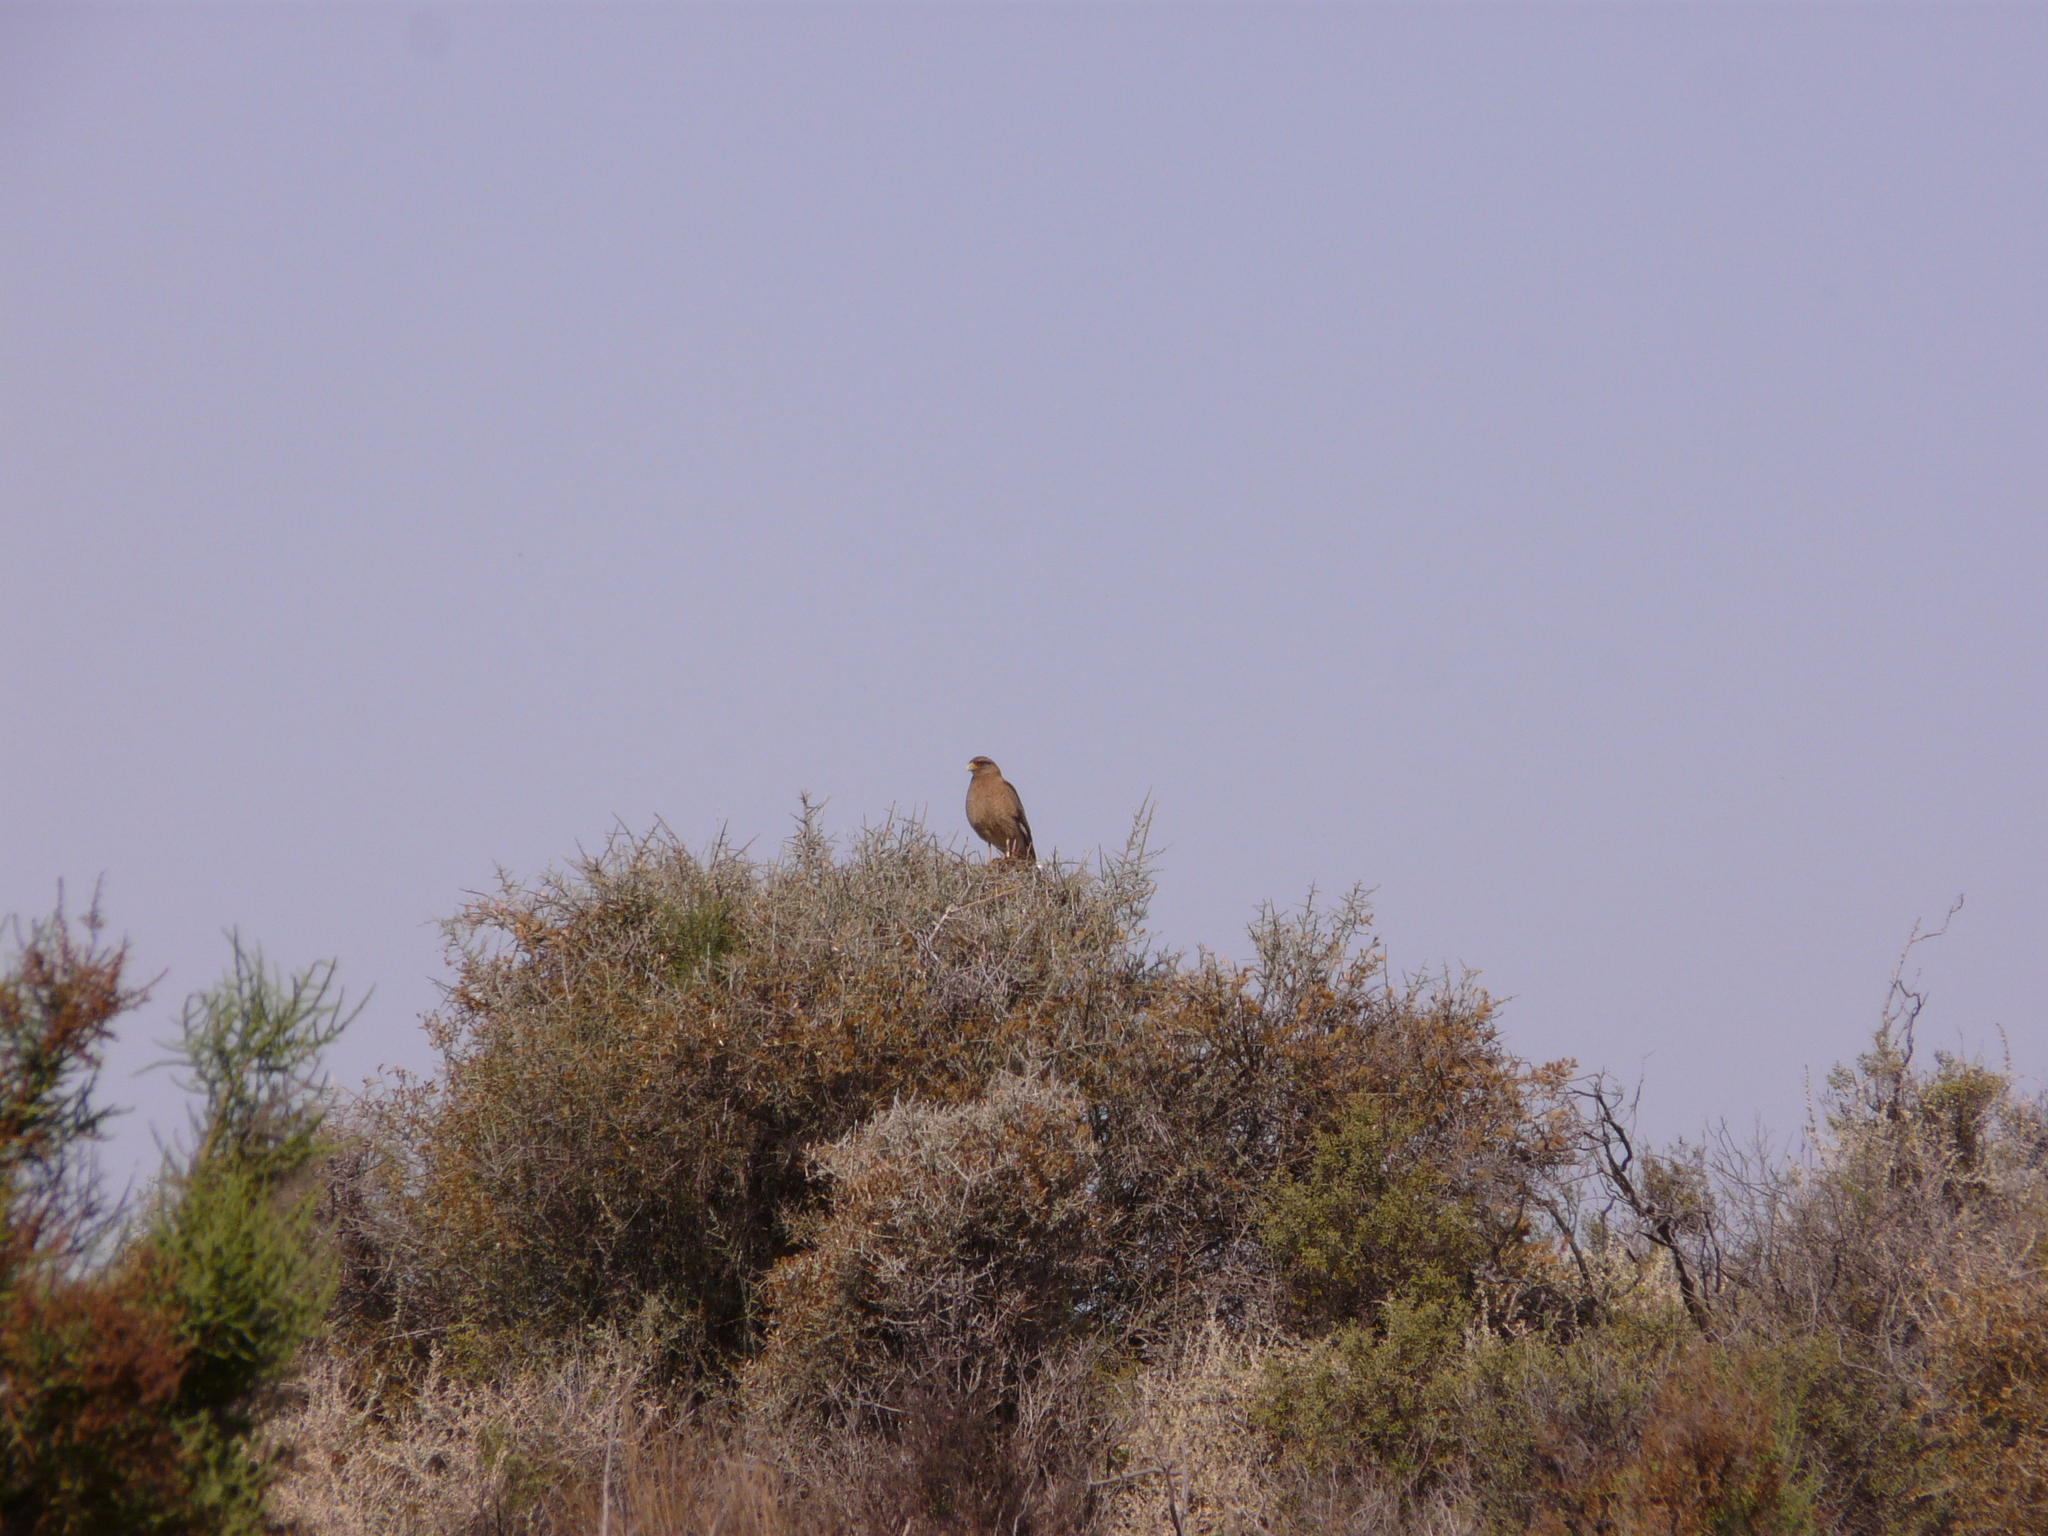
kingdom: Animalia
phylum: Chordata
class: Aves
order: Falconiformes
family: Falconidae
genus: Daptrius
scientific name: Daptrius
